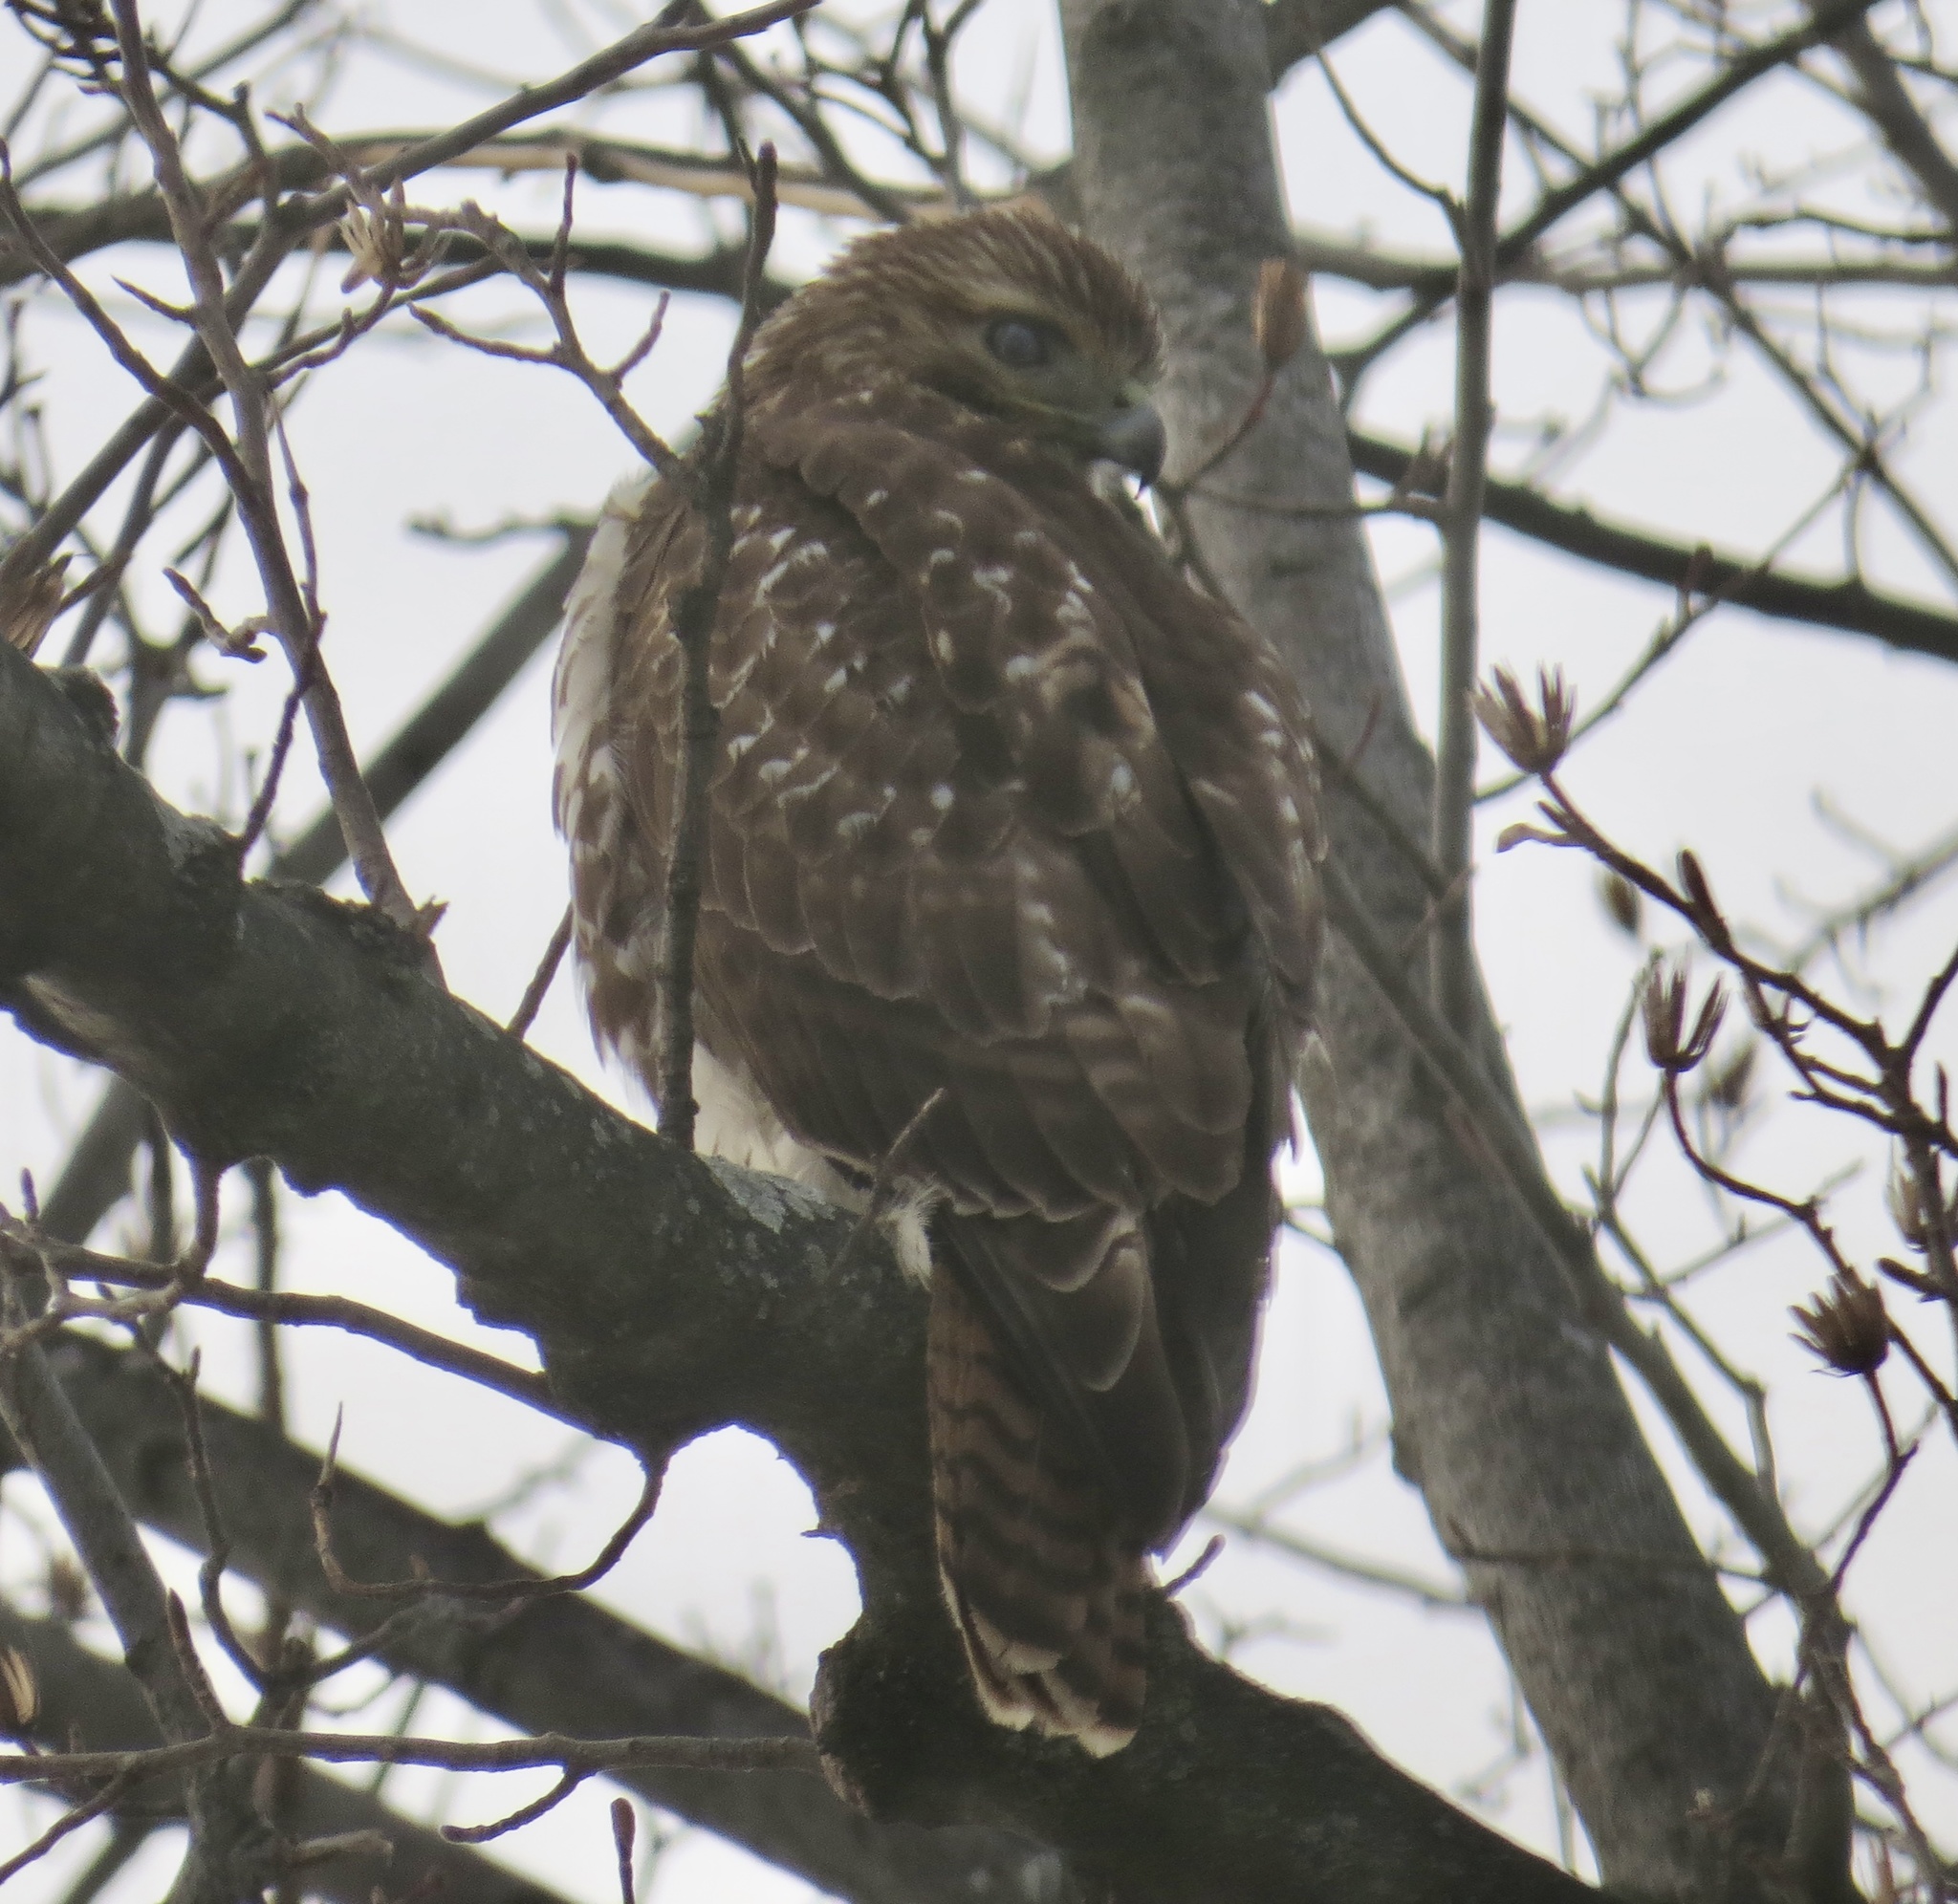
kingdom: Animalia
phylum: Chordata
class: Aves
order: Accipitriformes
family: Accipitridae
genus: Buteo
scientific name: Buteo jamaicensis
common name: Red-tailed hawk
